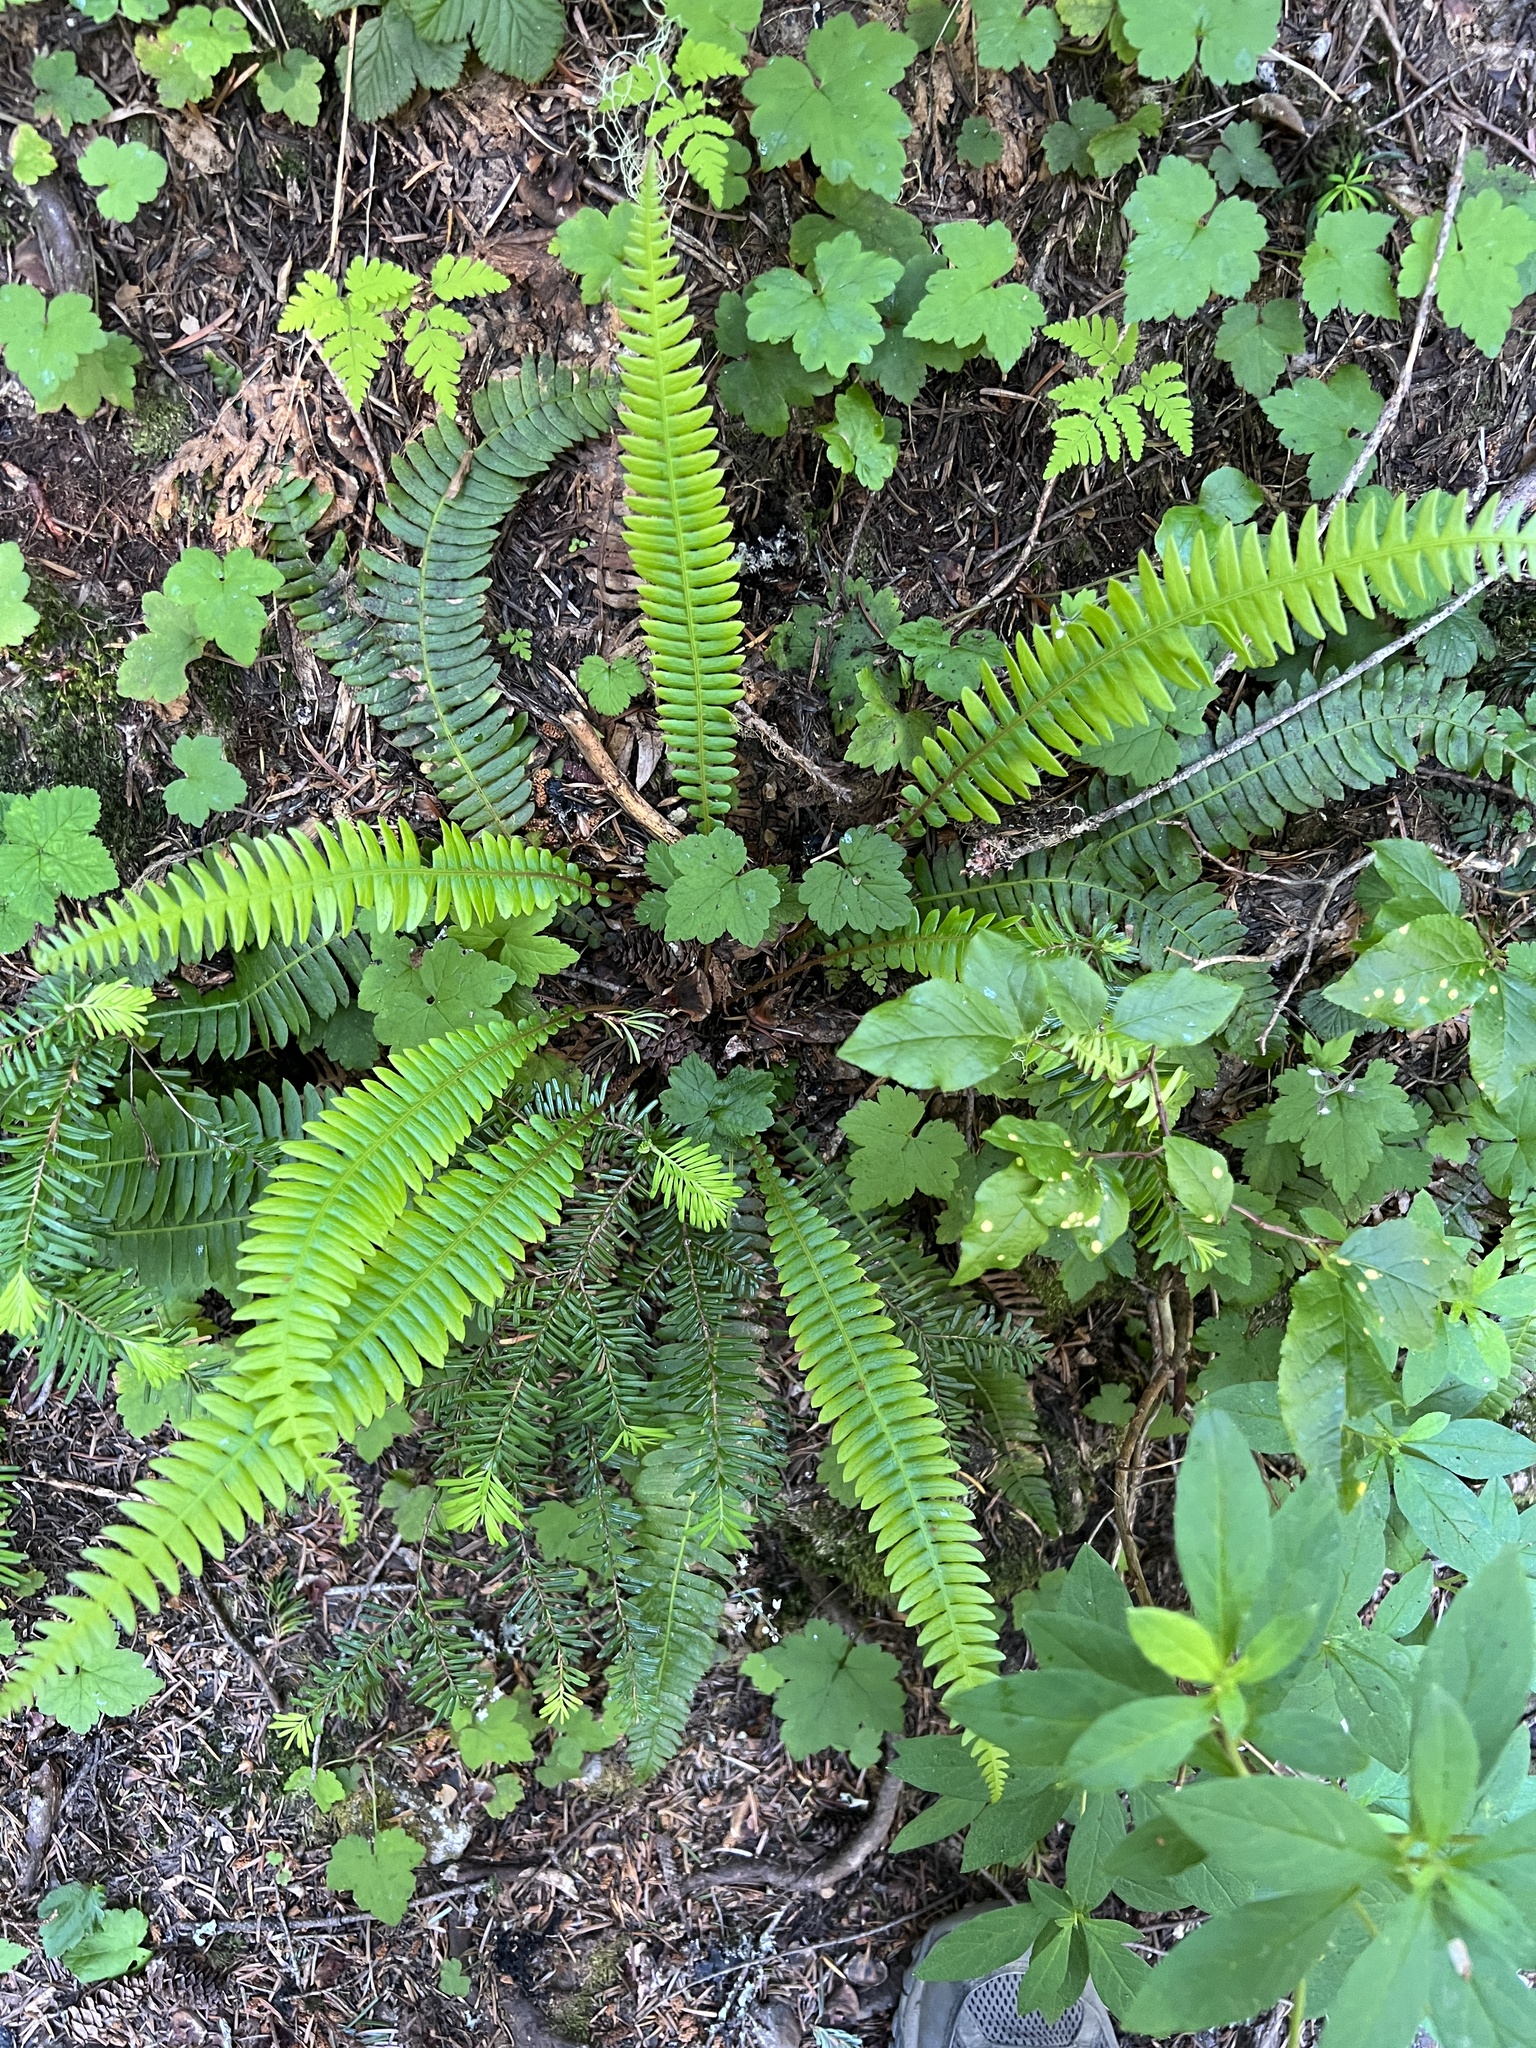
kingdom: Plantae
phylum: Tracheophyta
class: Polypodiopsida
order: Polypodiales
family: Blechnaceae
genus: Struthiopteris
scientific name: Struthiopteris spicant
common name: Deer fern
